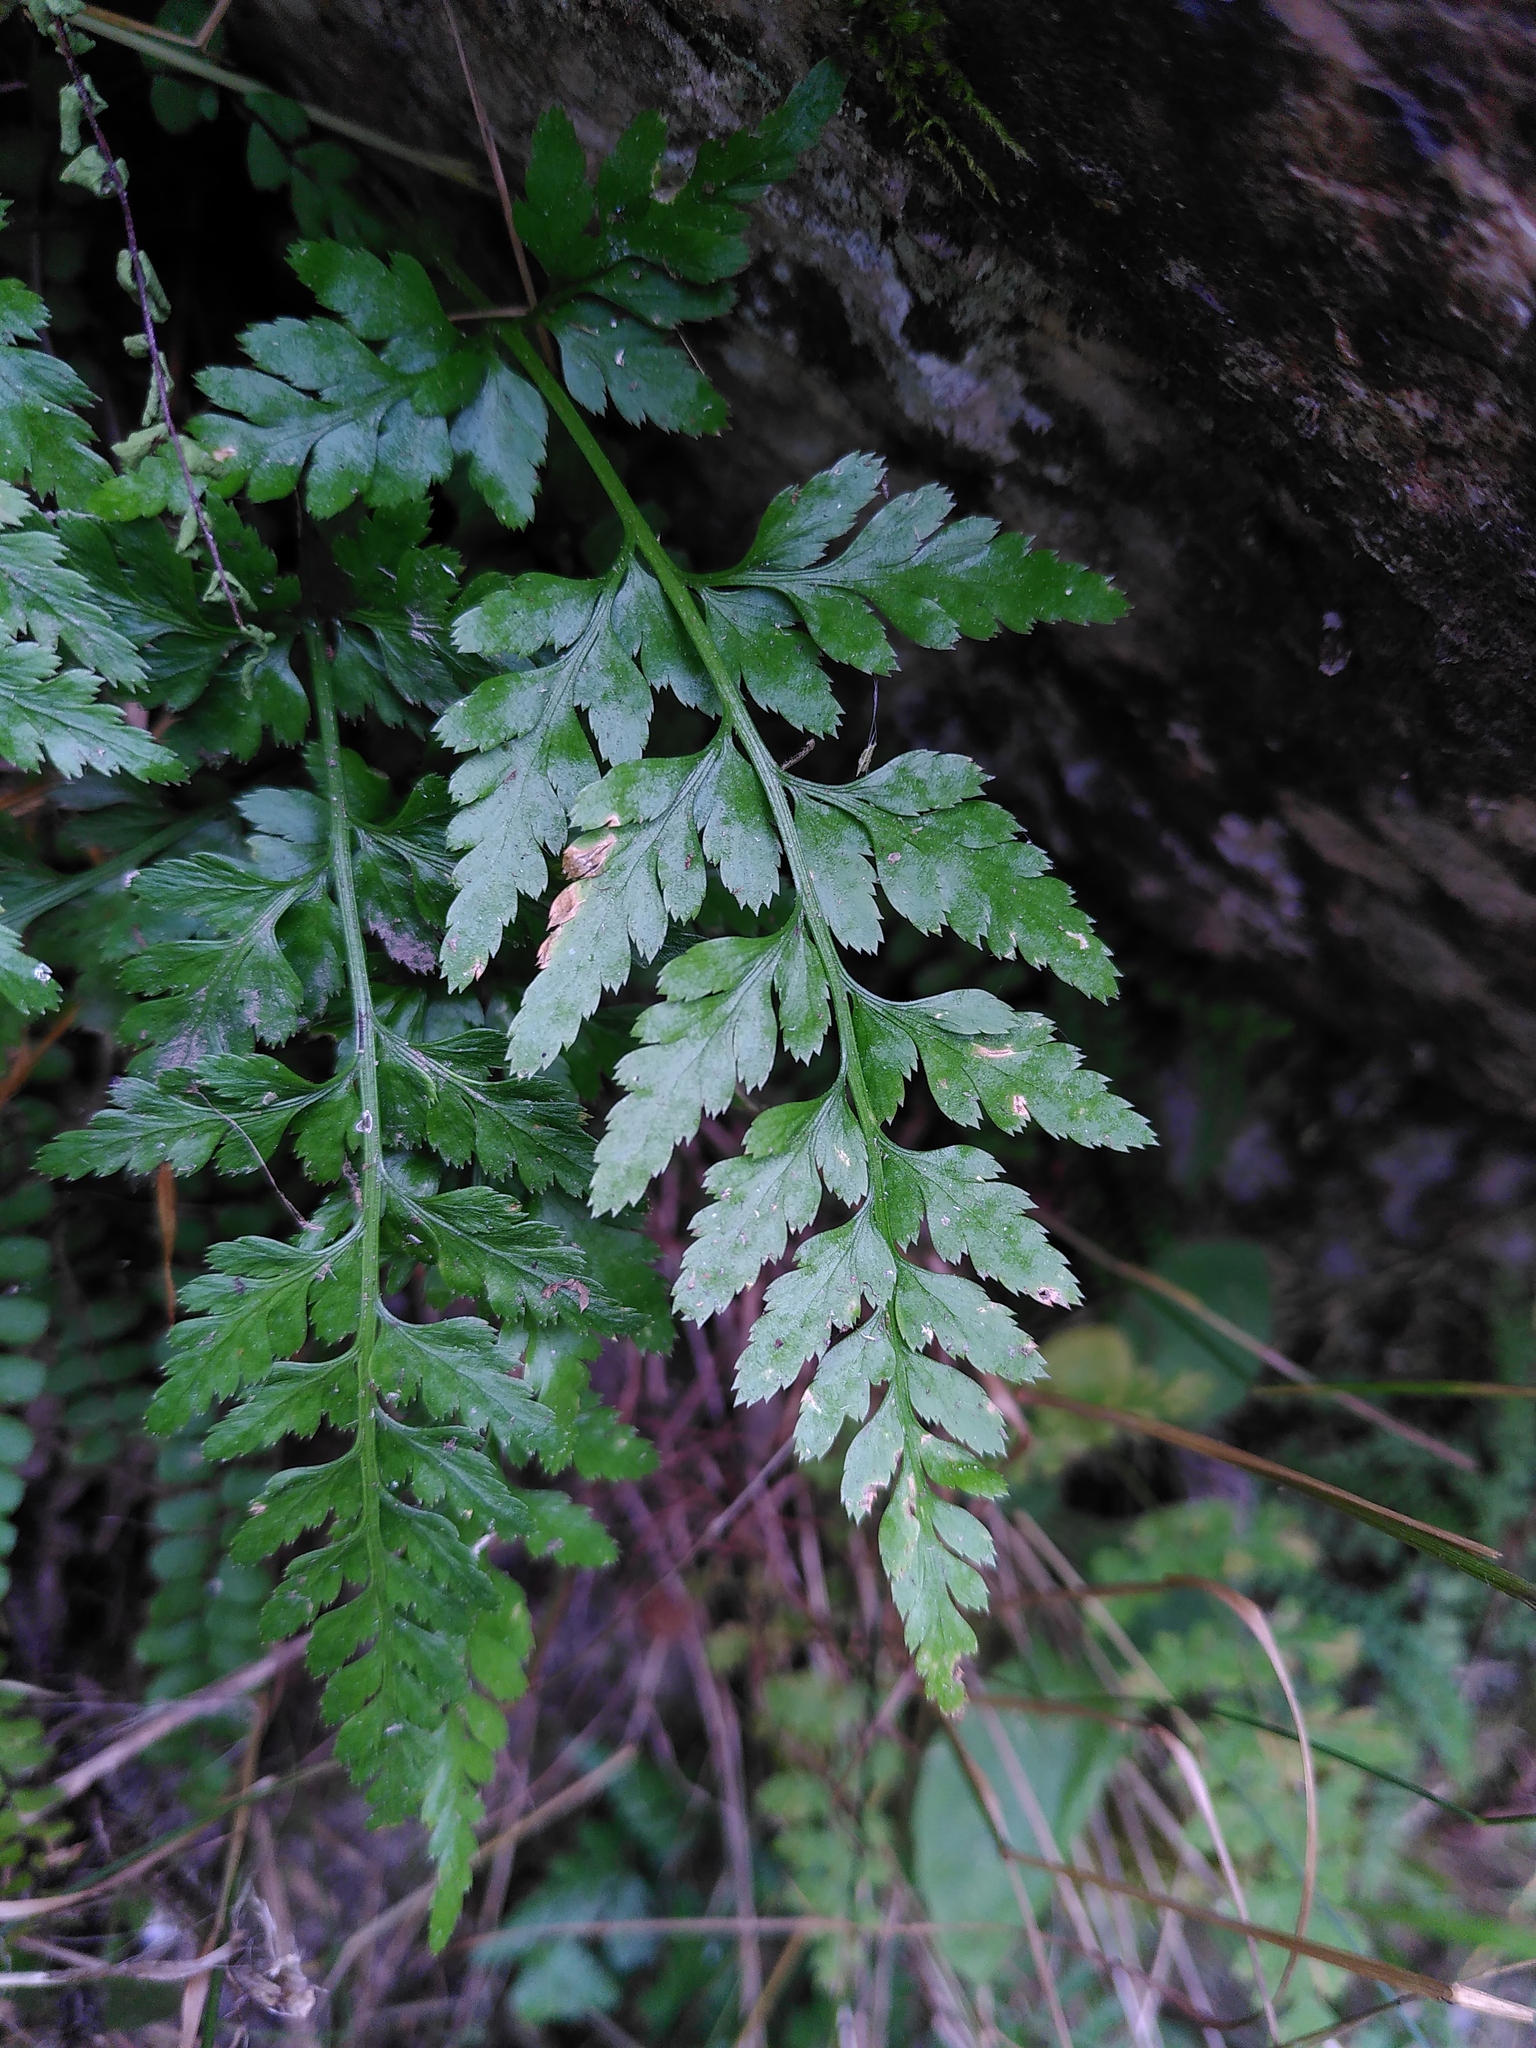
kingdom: Plantae
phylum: Tracheophyta
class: Polypodiopsida
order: Polypodiales
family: Aspleniaceae
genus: Asplenium
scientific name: Asplenium adiantum-nigrum
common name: Black spleenwort
